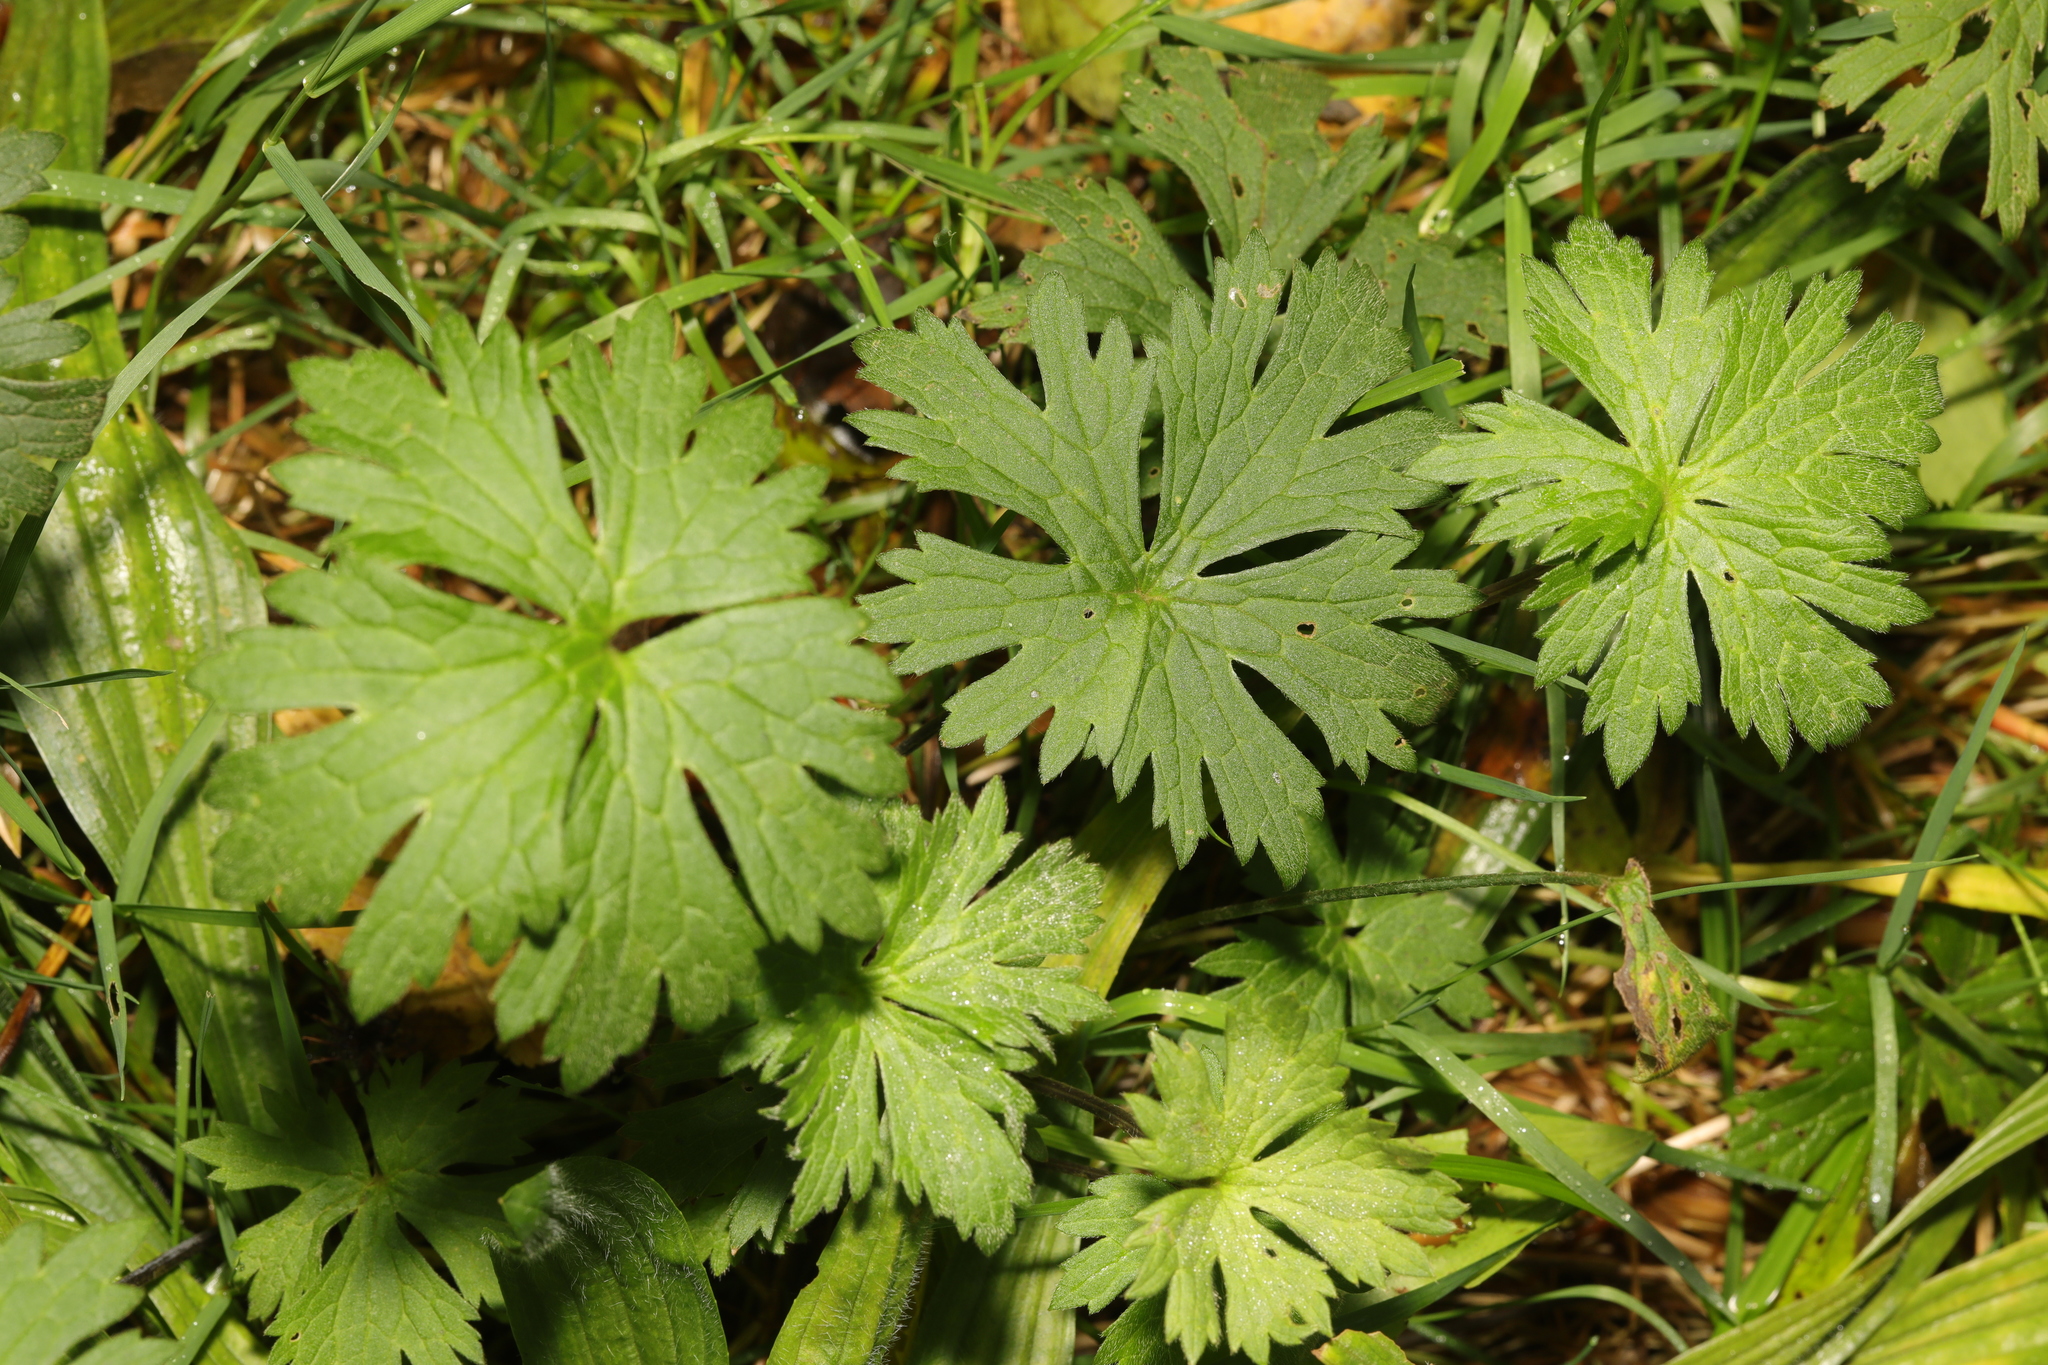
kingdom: Plantae
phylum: Tracheophyta
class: Magnoliopsida
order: Geraniales
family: Geraniaceae
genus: Geranium
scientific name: Geranium pratense
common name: Meadow crane's-bill
